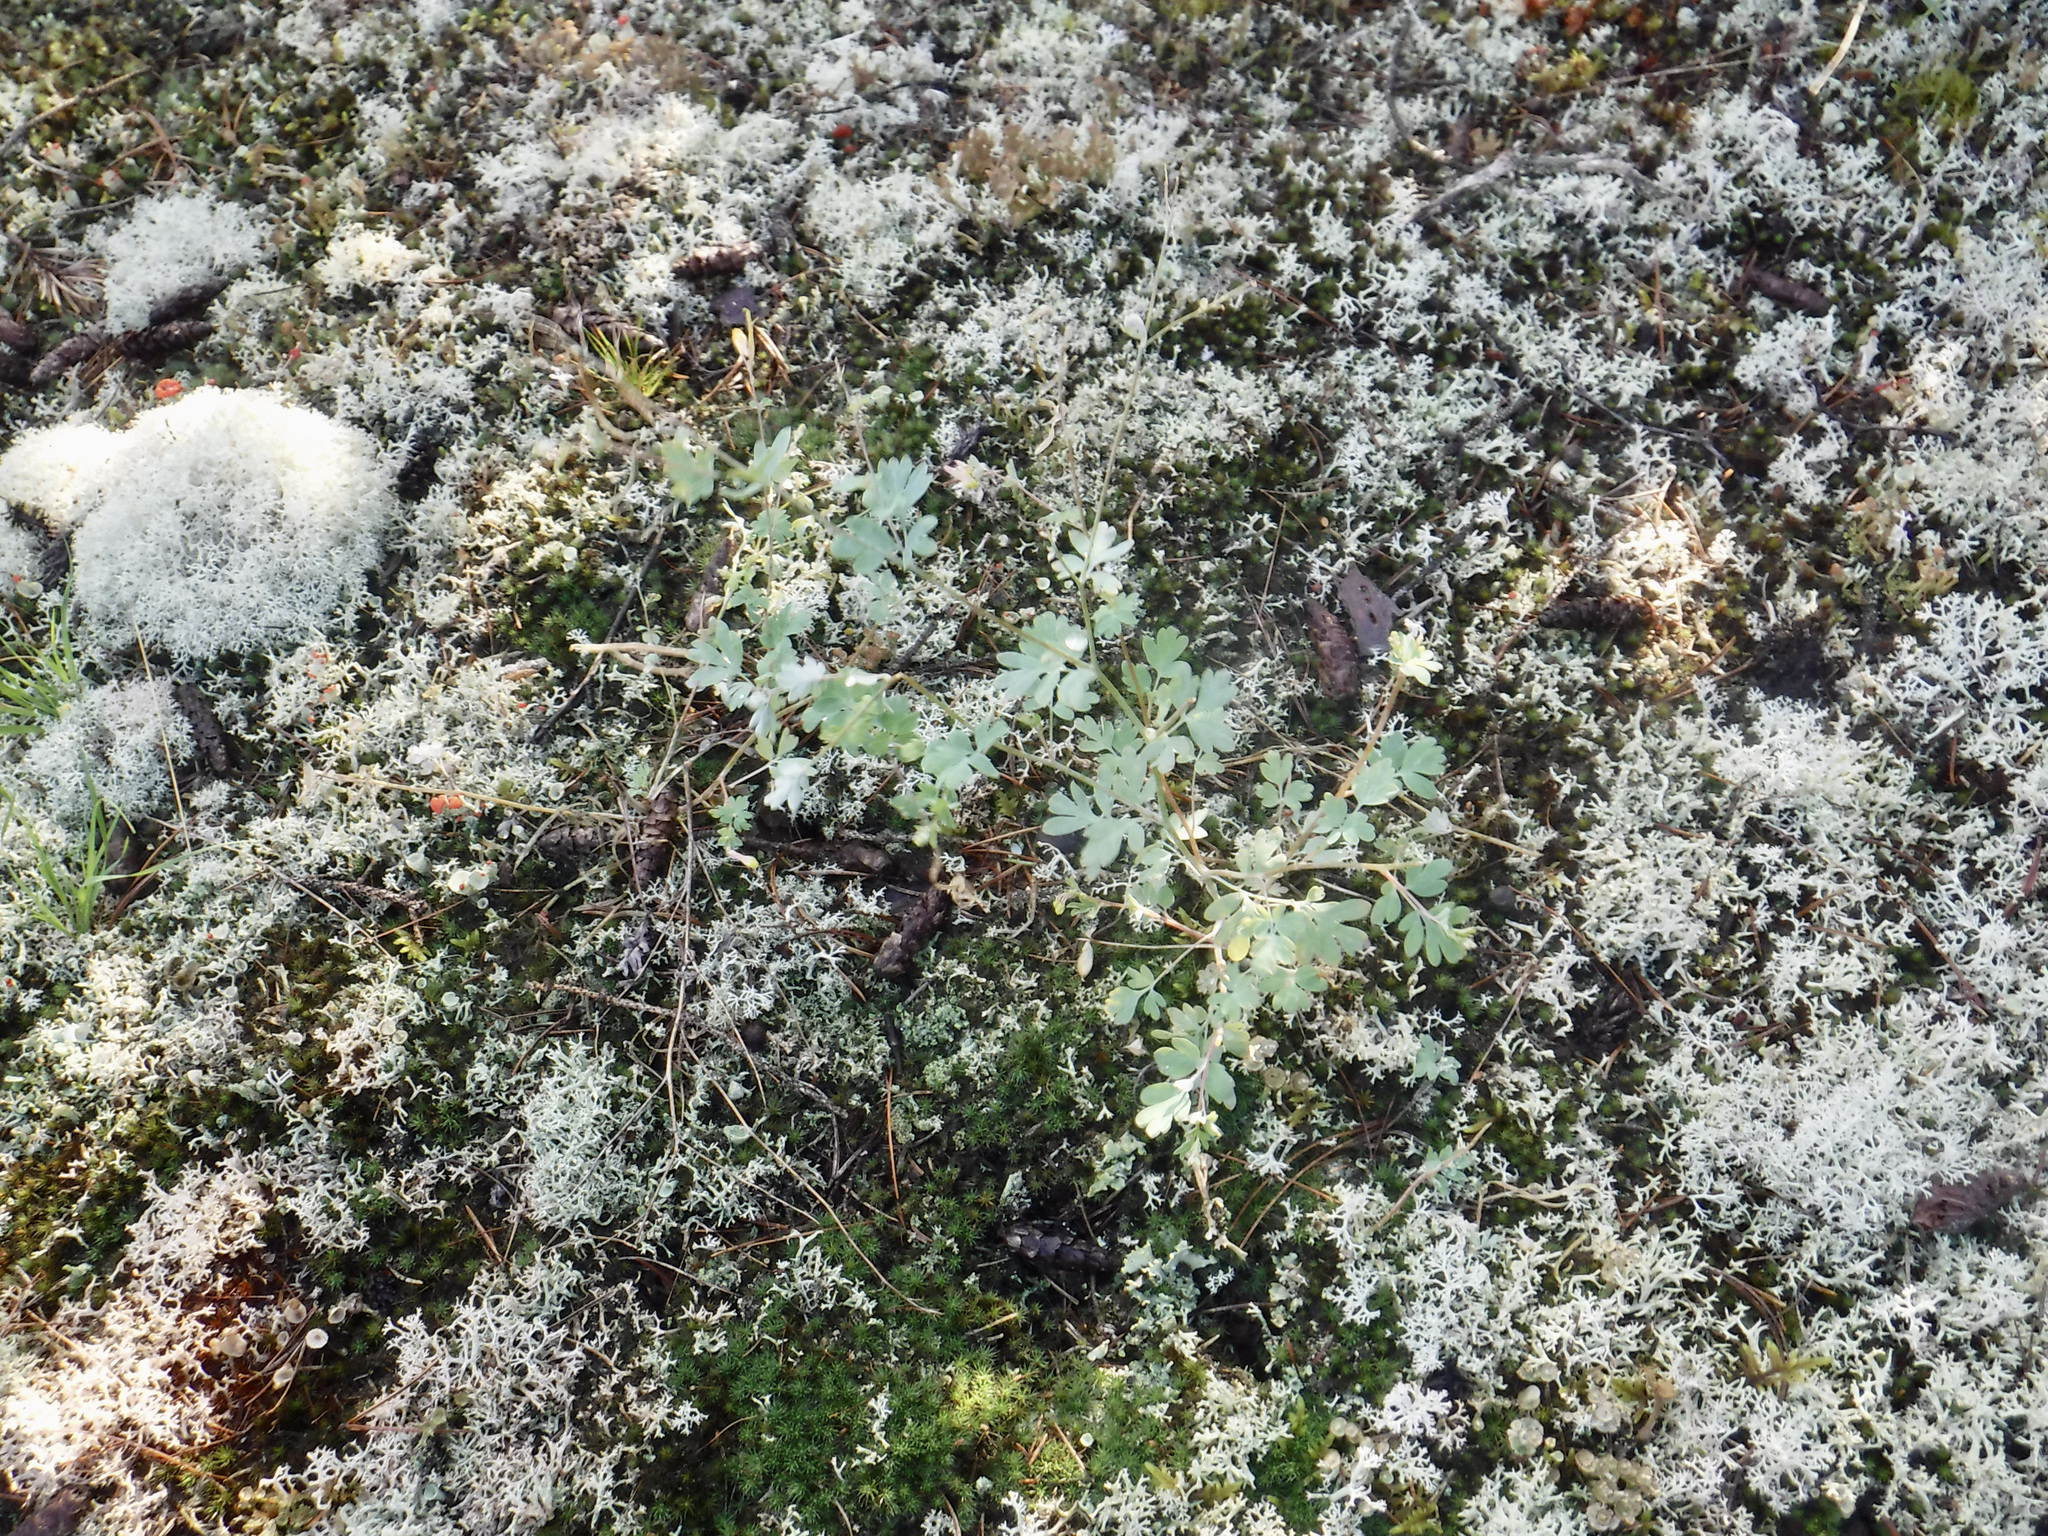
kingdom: Plantae
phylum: Tracheophyta
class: Magnoliopsida
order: Ranunculales
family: Papaveraceae
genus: Capnoides
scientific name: Capnoides sempervirens
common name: Rock harlequin
